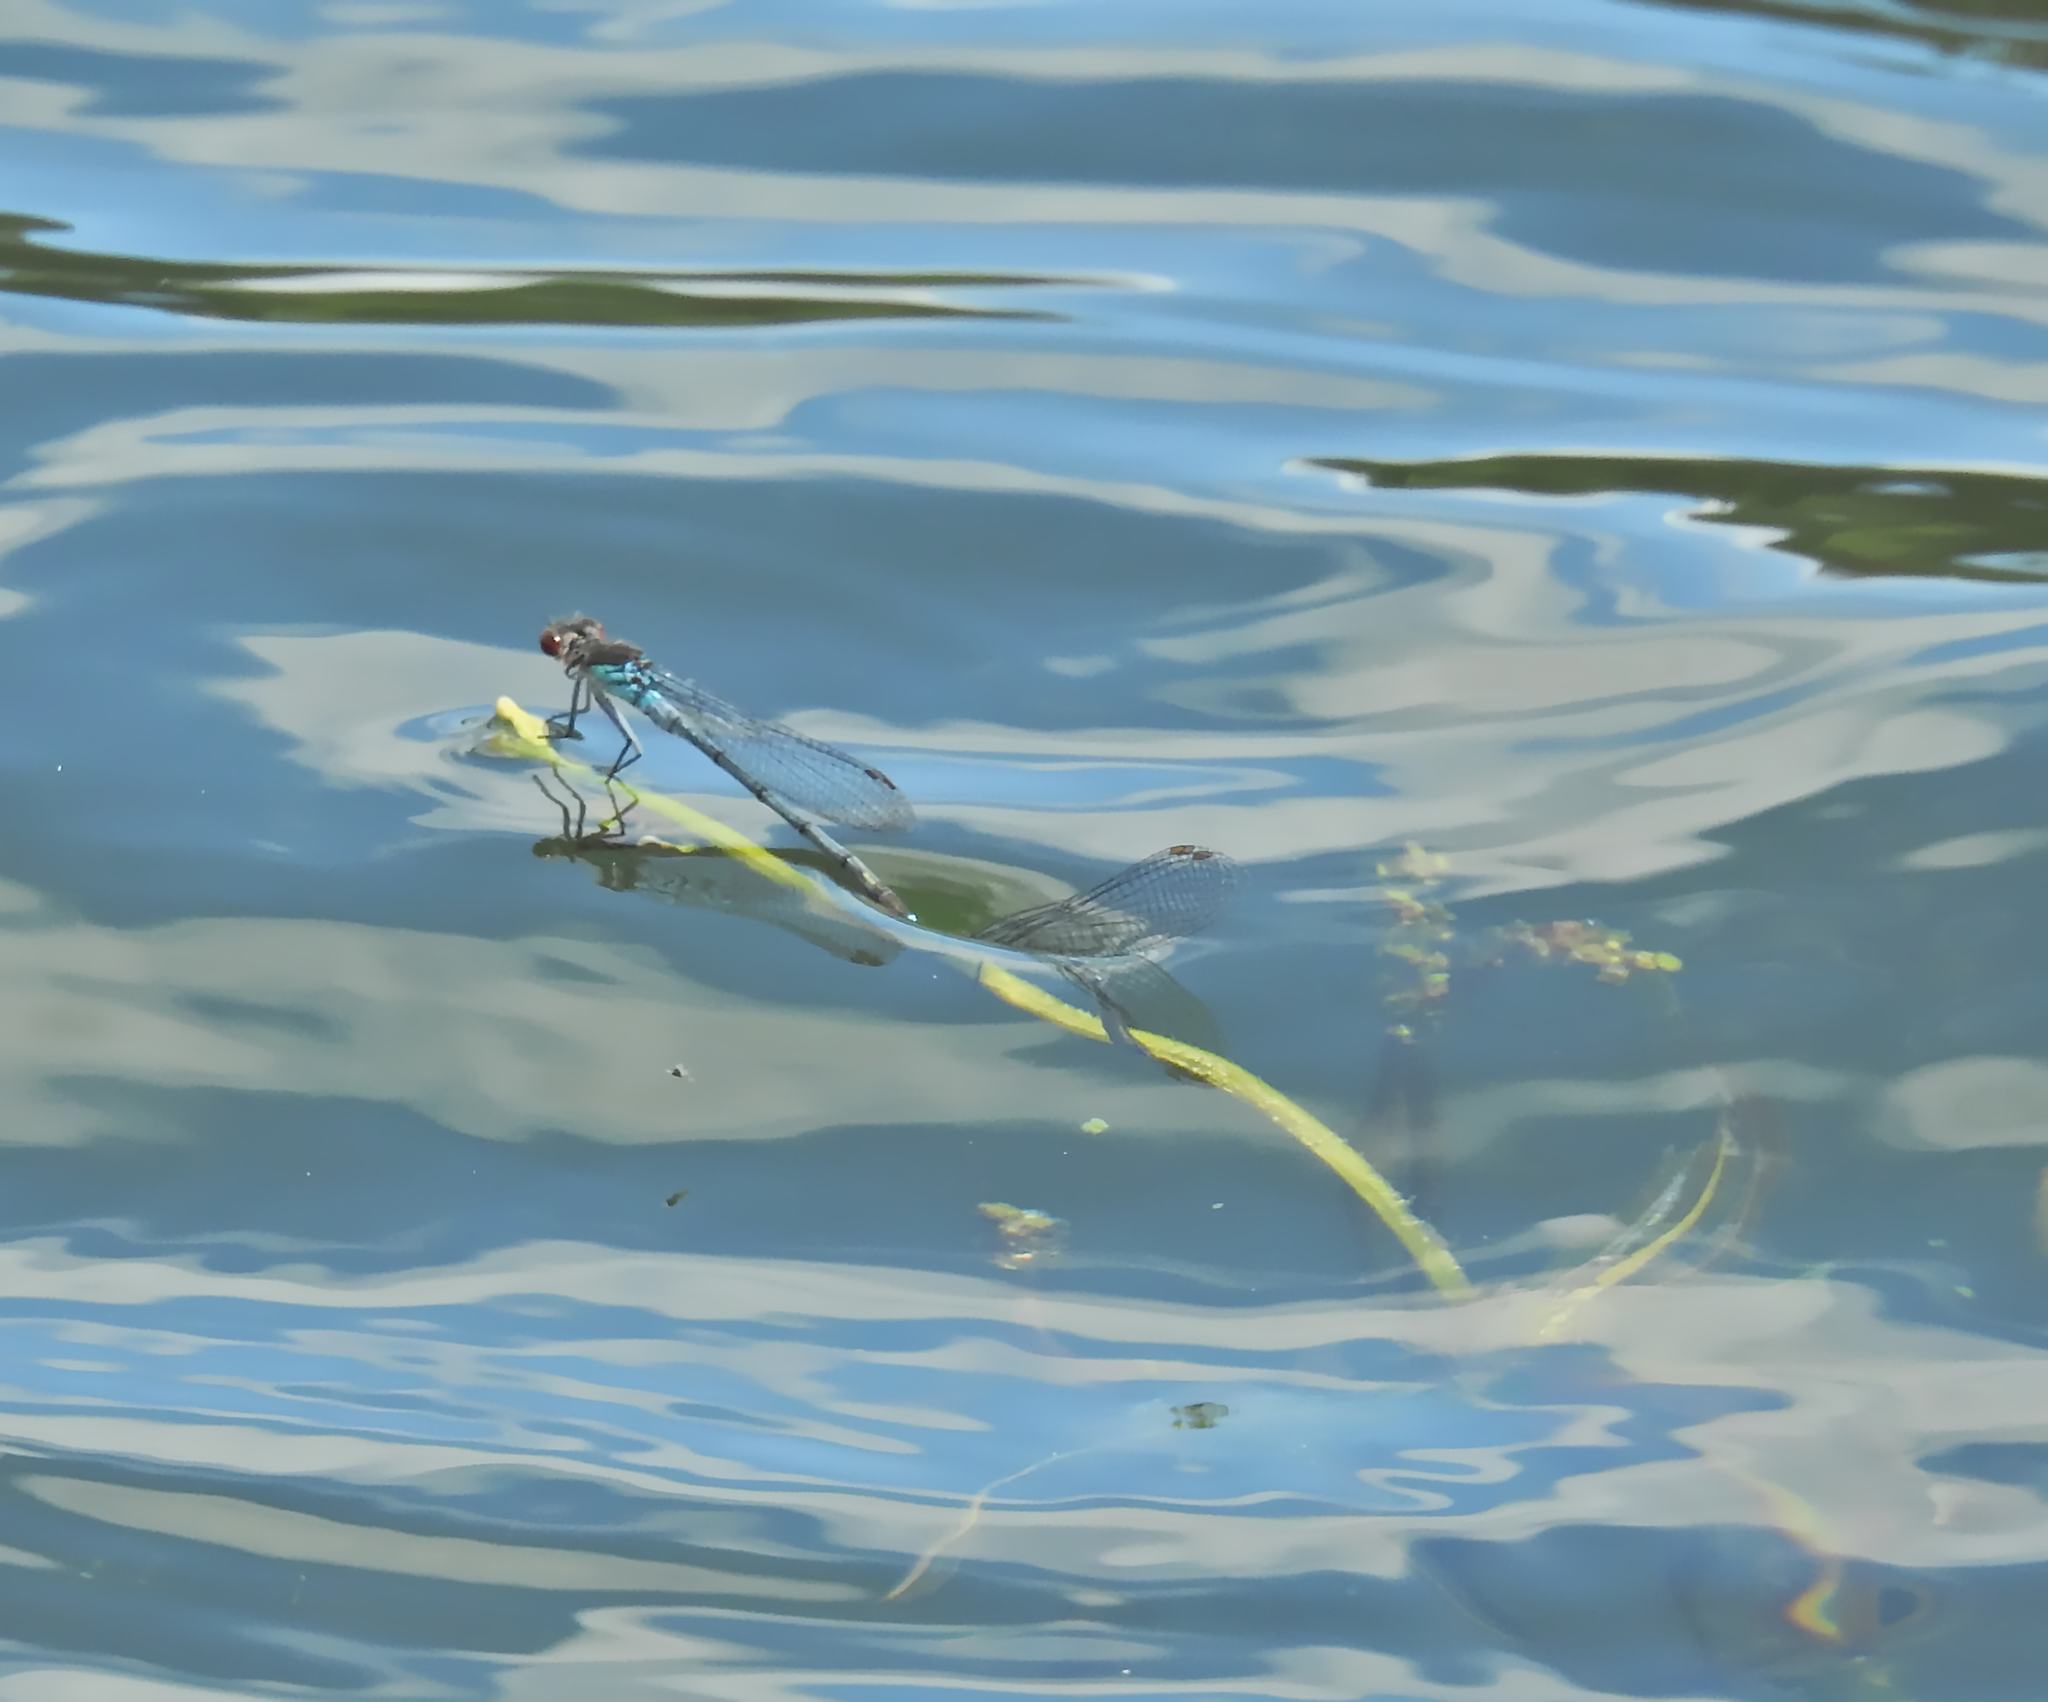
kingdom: Animalia
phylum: Arthropoda
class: Insecta
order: Odonata
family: Coenagrionidae
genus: Erythromma
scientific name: Erythromma najas
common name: Red-eyed damselfly
